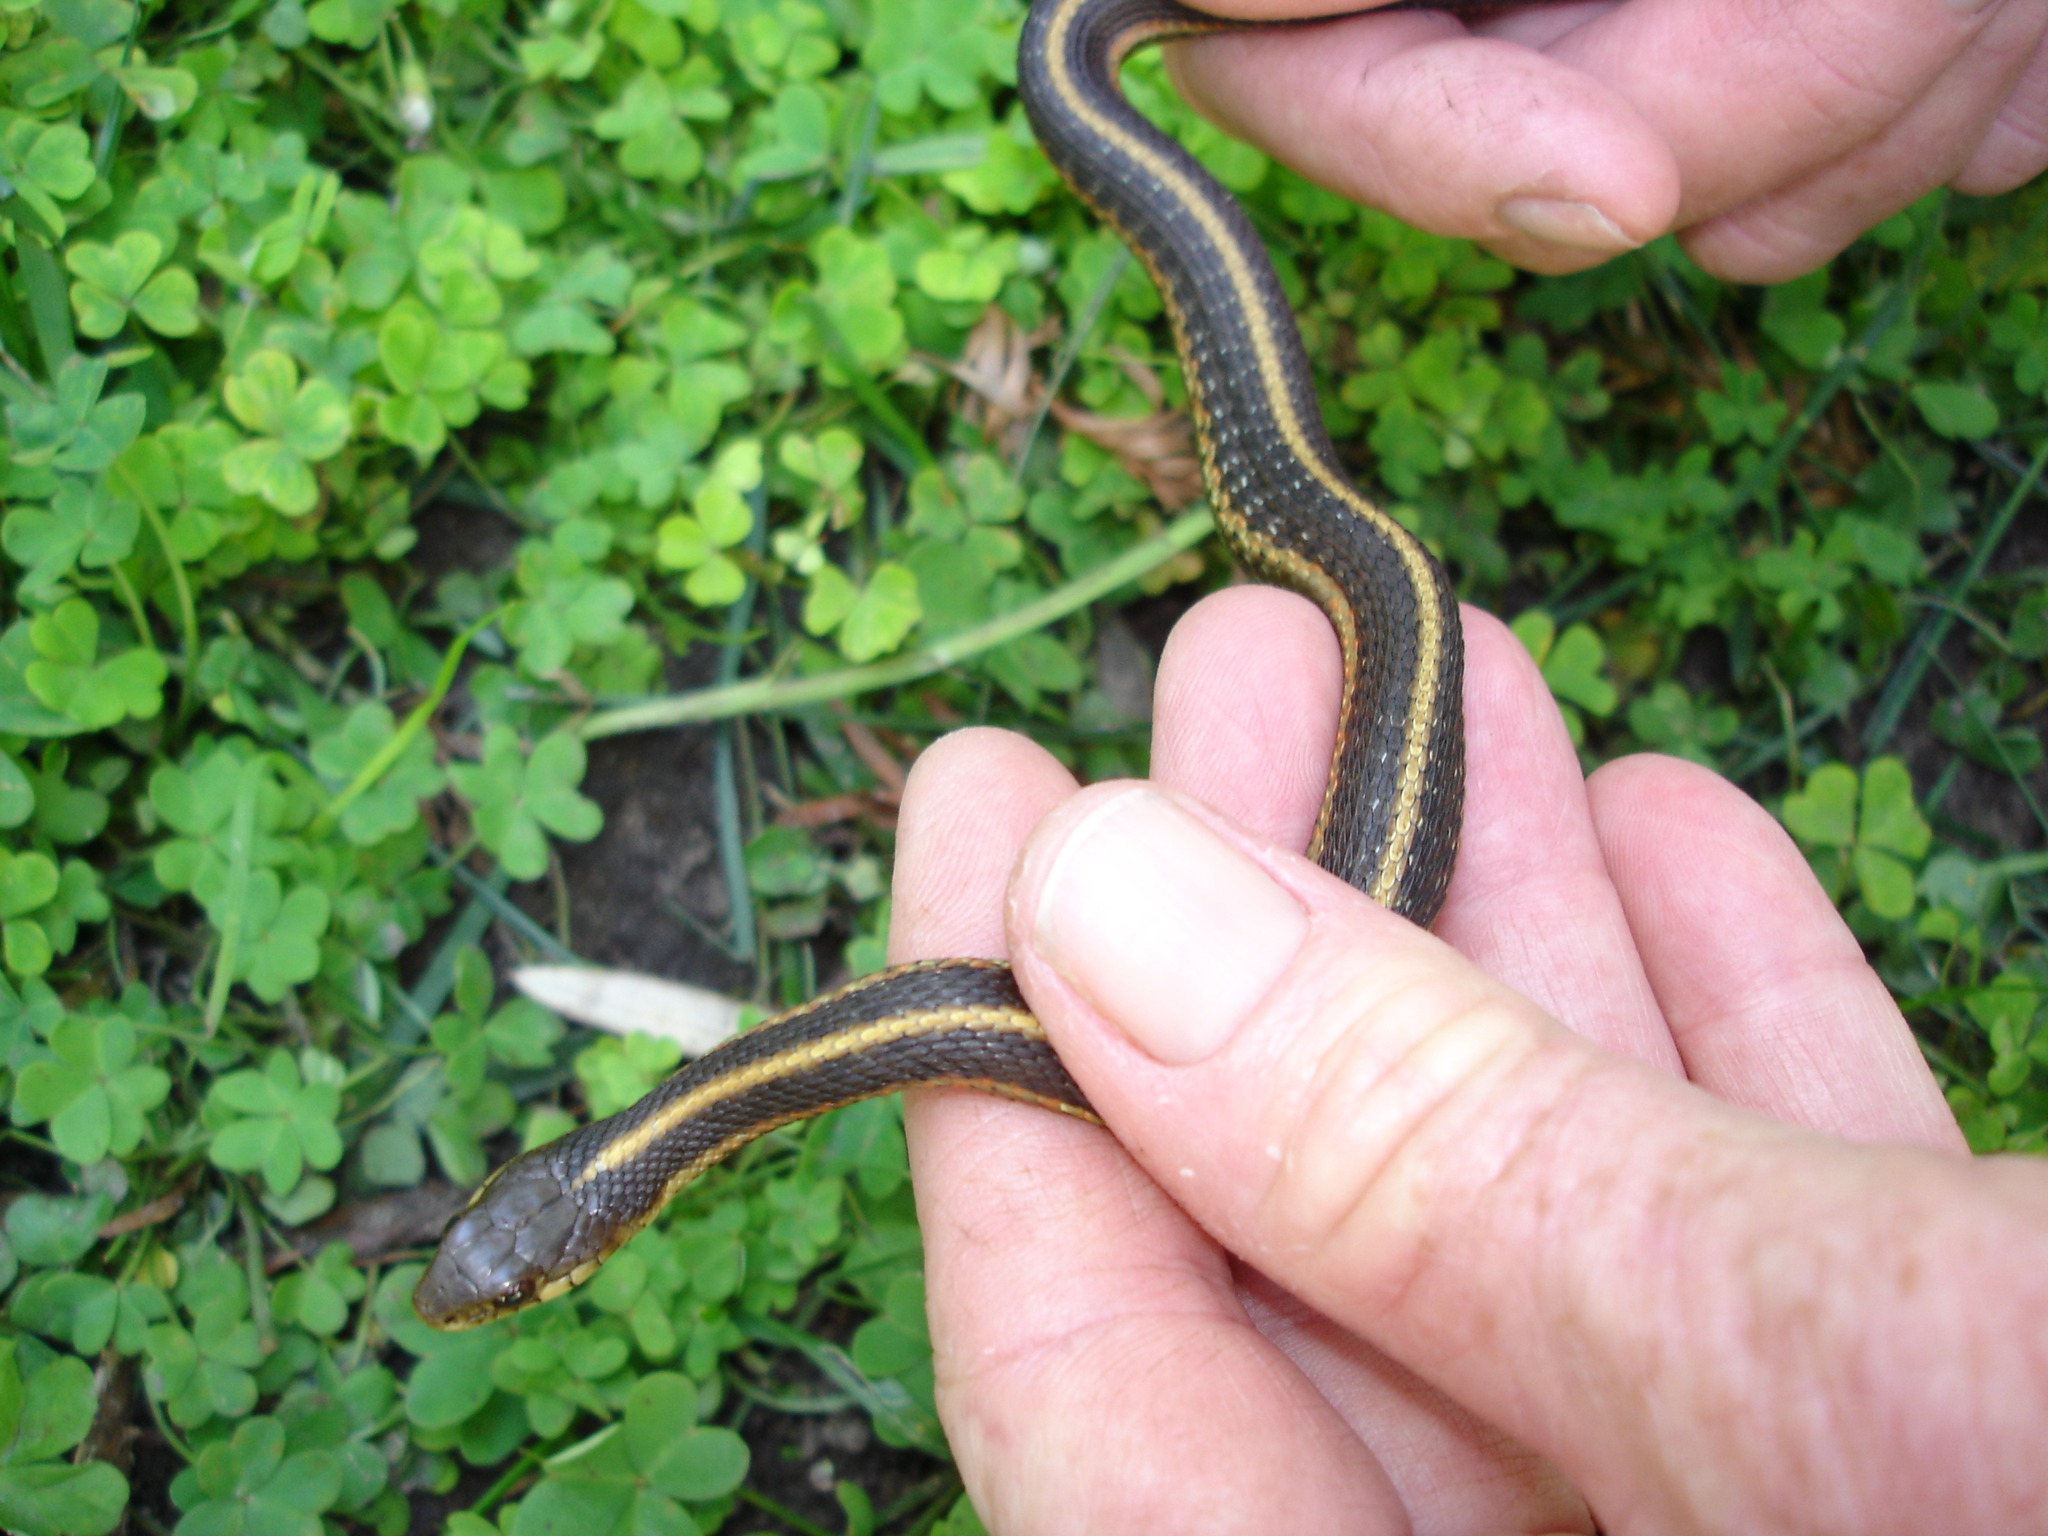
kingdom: Animalia
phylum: Chordata
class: Squamata
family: Colubridae
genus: Thamnophis
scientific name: Thamnophis elegans
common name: Western terrestrial garter snake
